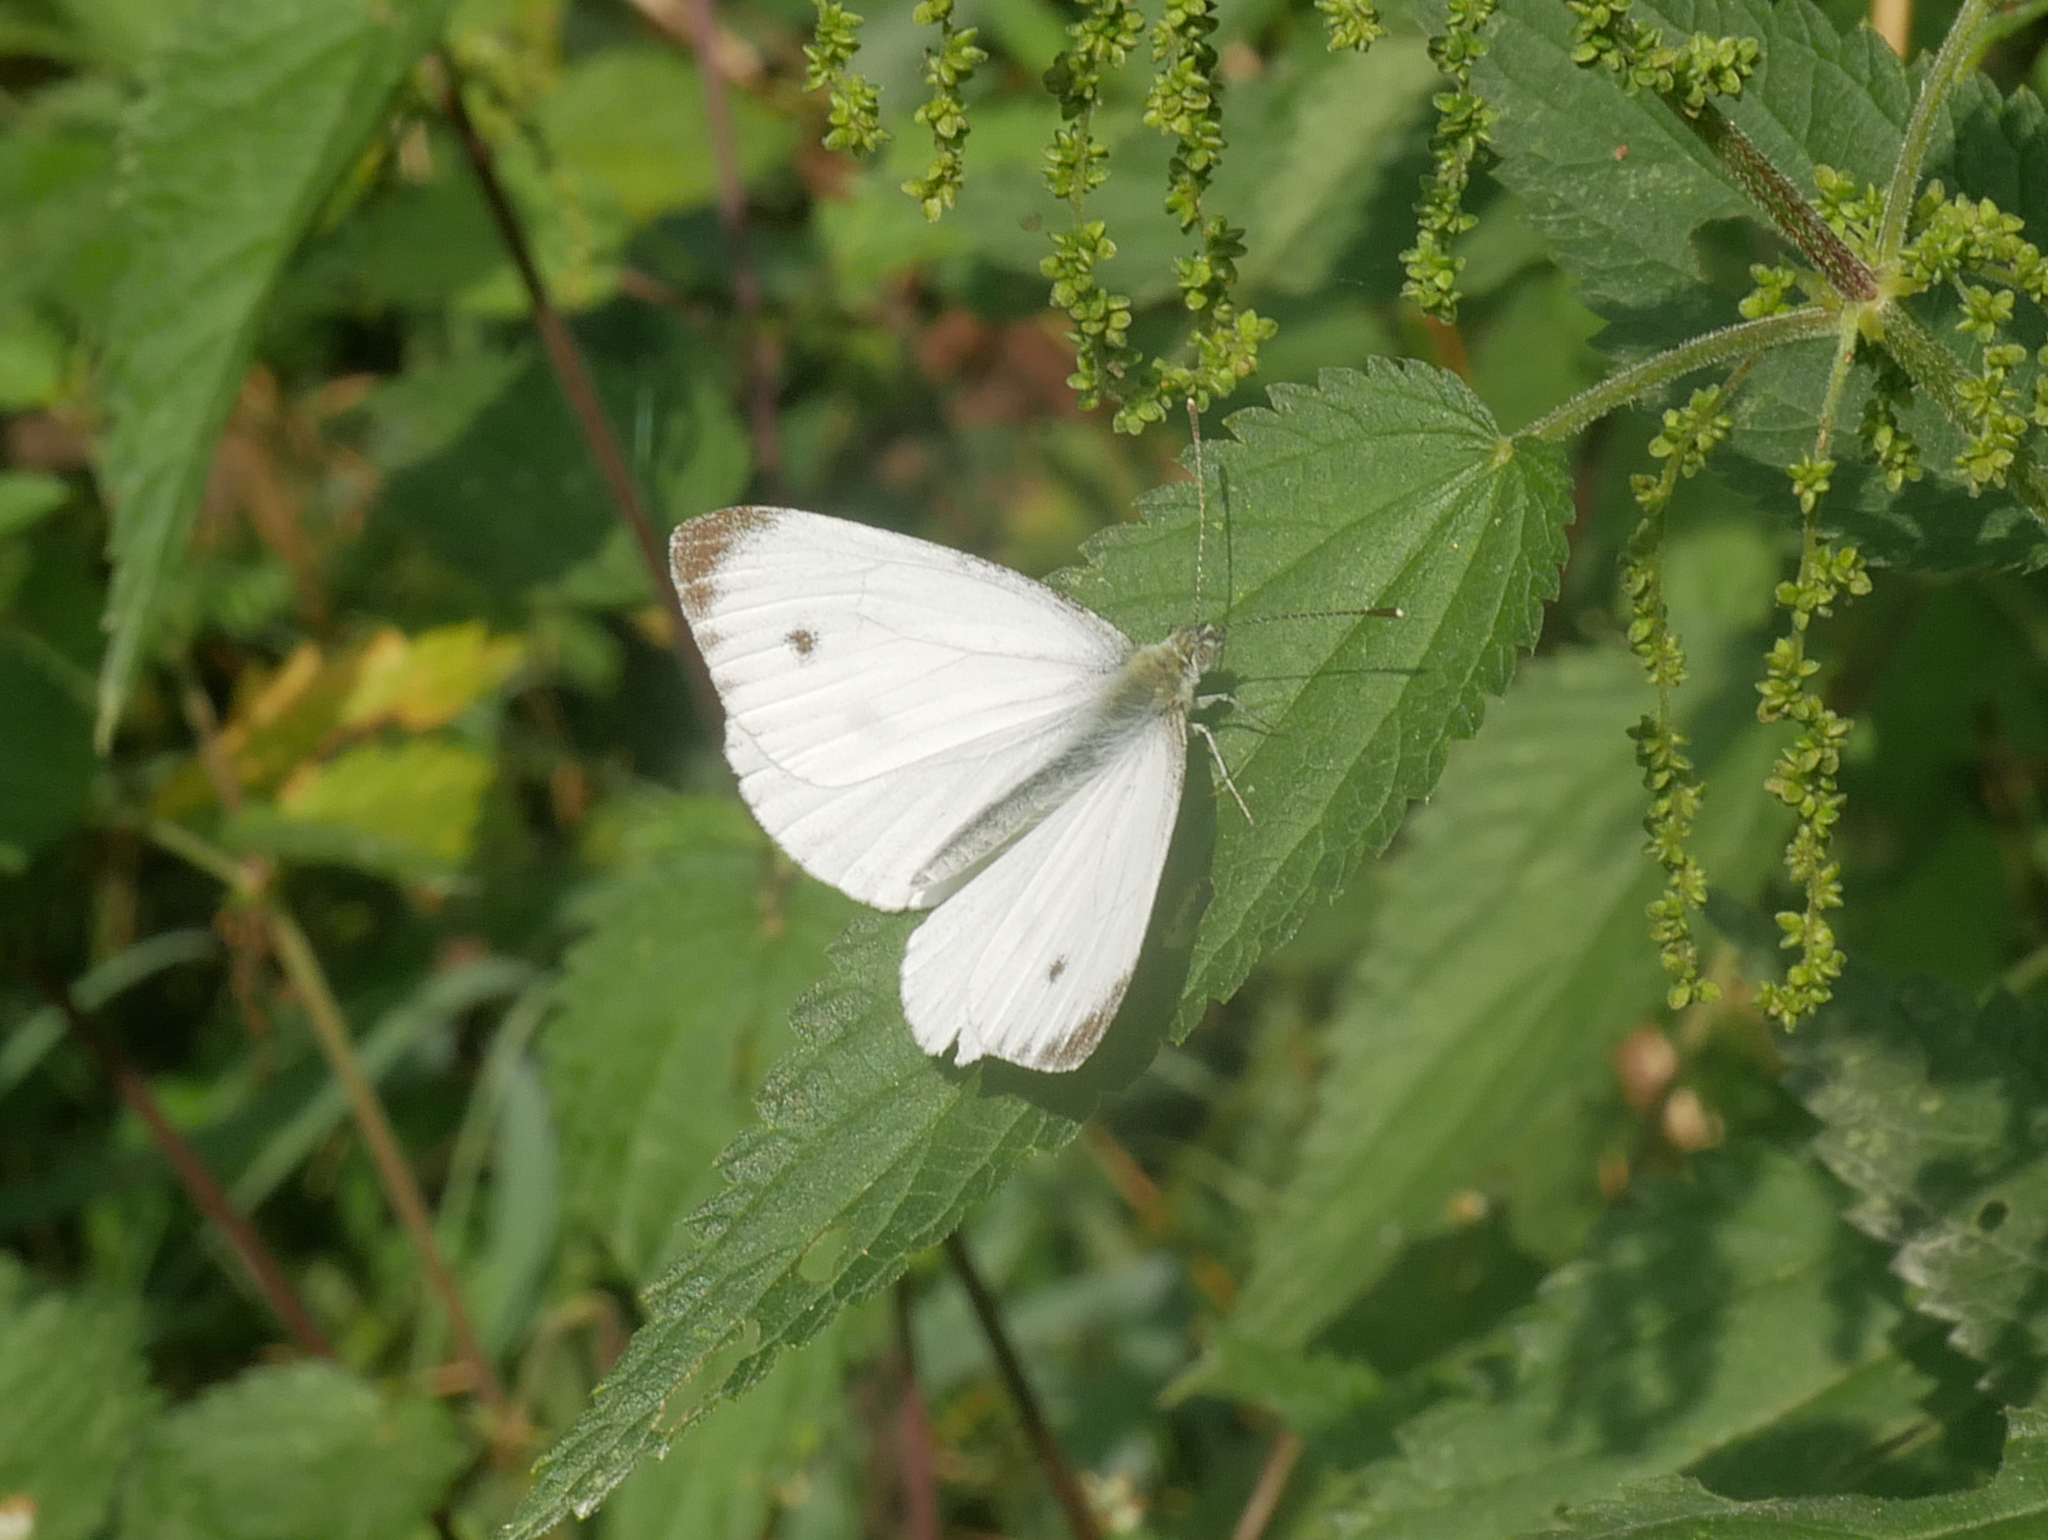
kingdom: Animalia
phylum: Arthropoda
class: Insecta
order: Lepidoptera
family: Pieridae
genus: Pieris
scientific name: Pieris napi
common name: Green-veined white
